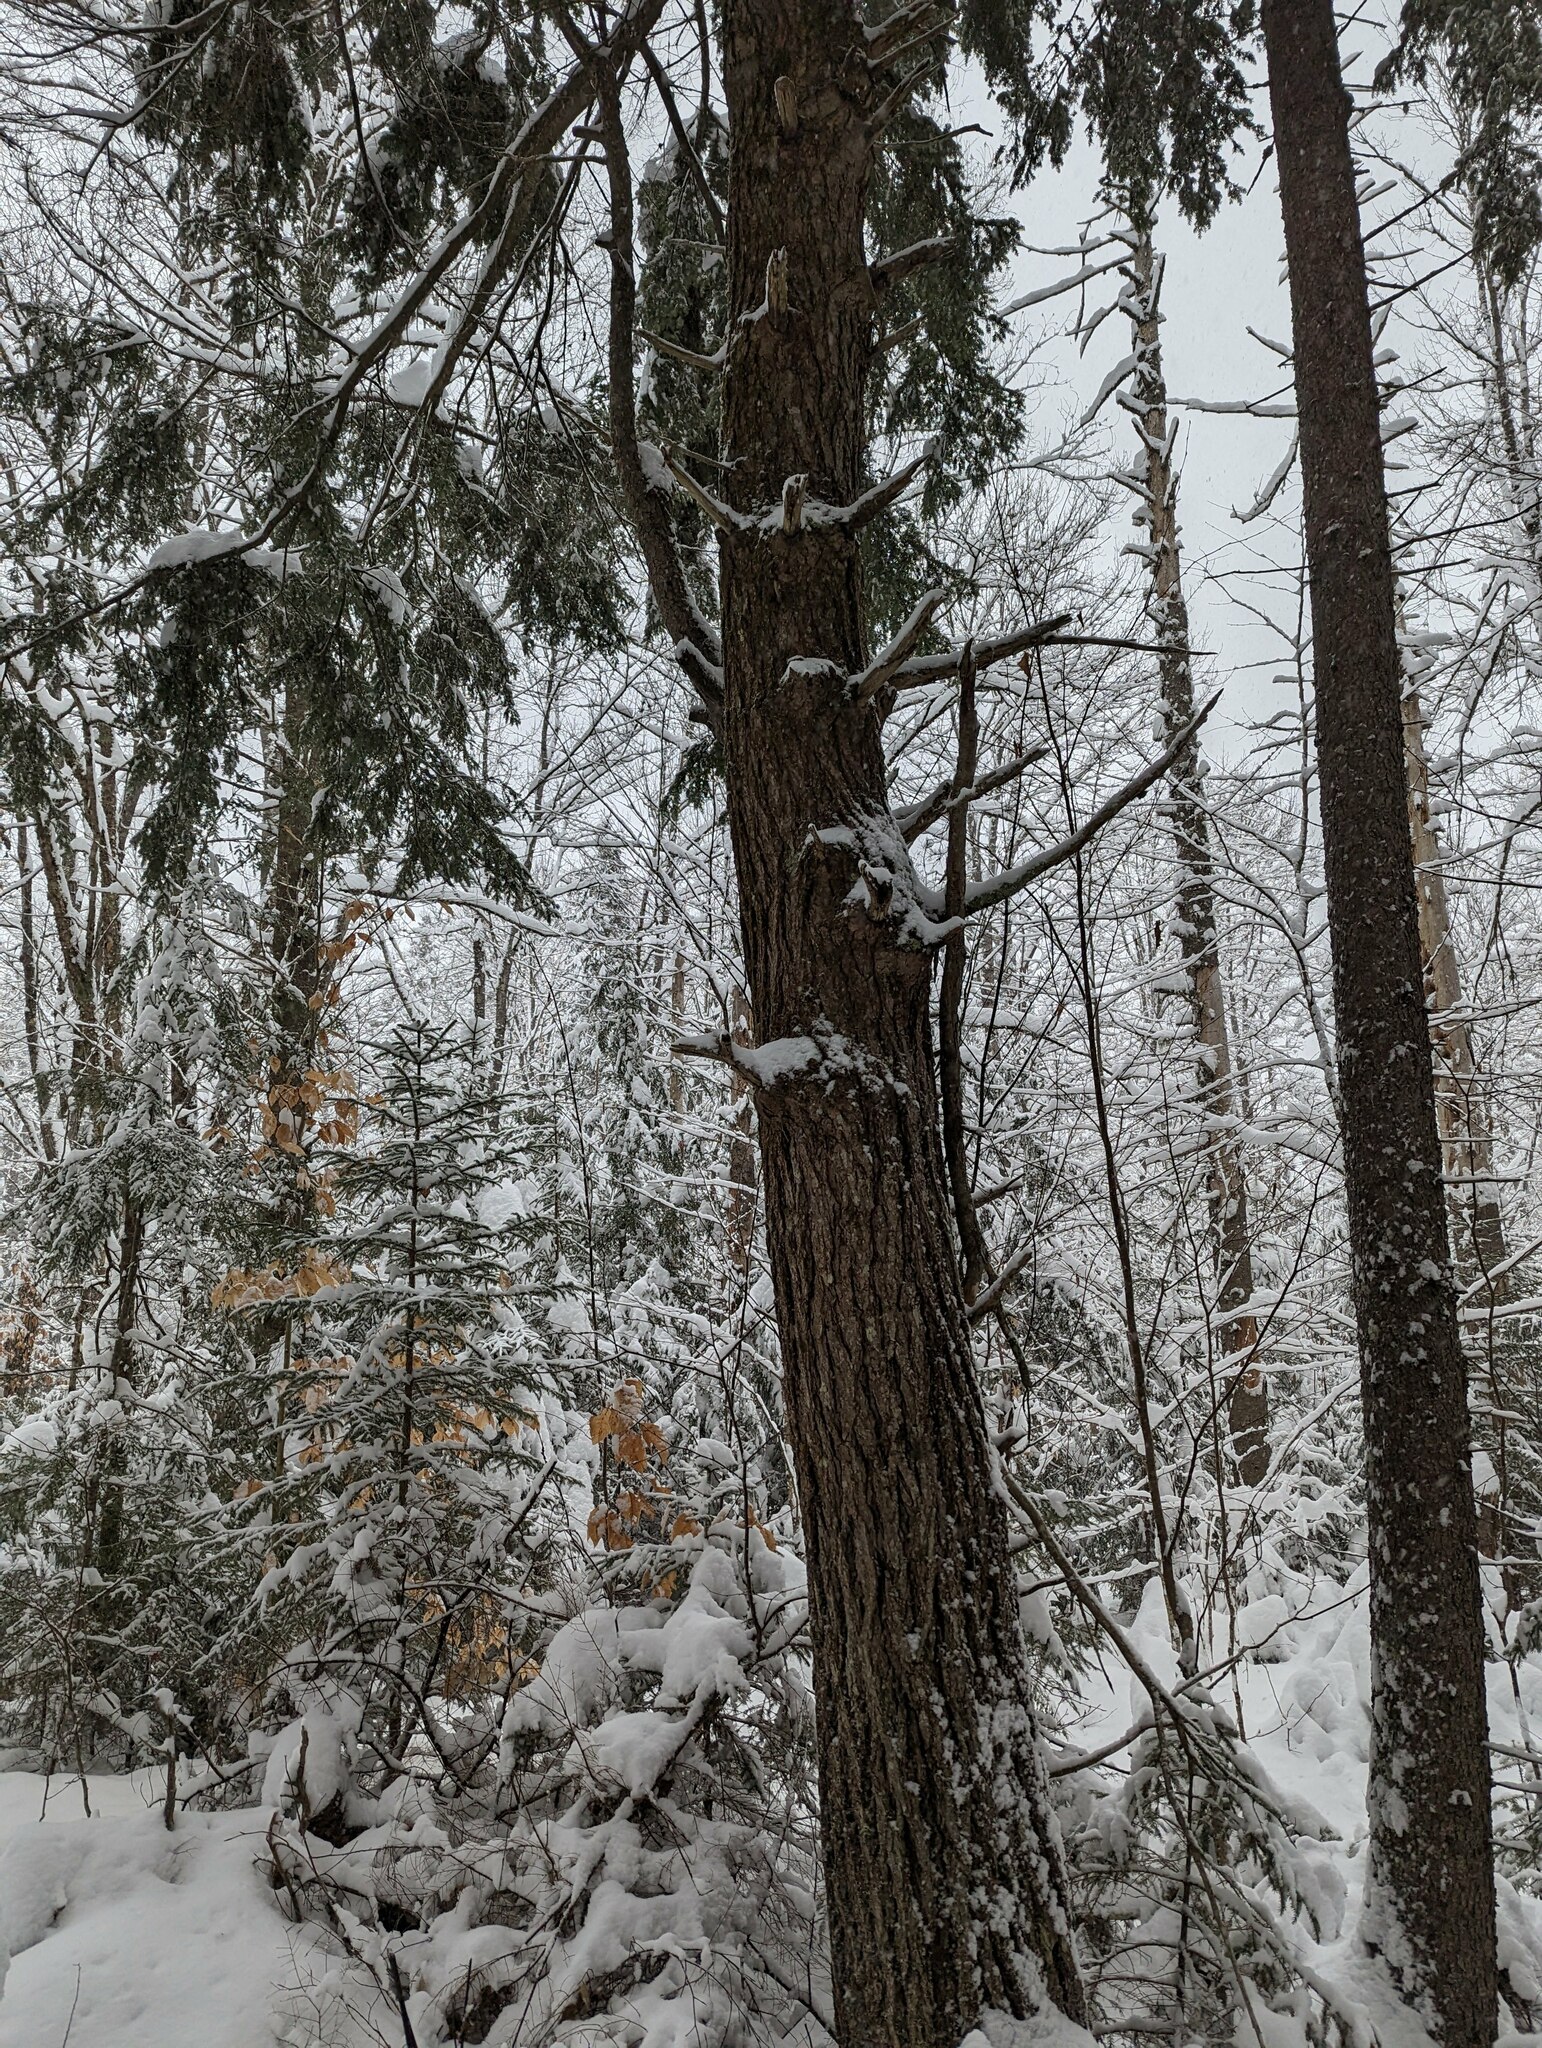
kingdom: Plantae
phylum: Tracheophyta
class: Pinopsida
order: Pinales
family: Pinaceae
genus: Tsuga
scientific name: Tsuga canadensis
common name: Eastern hemlock
